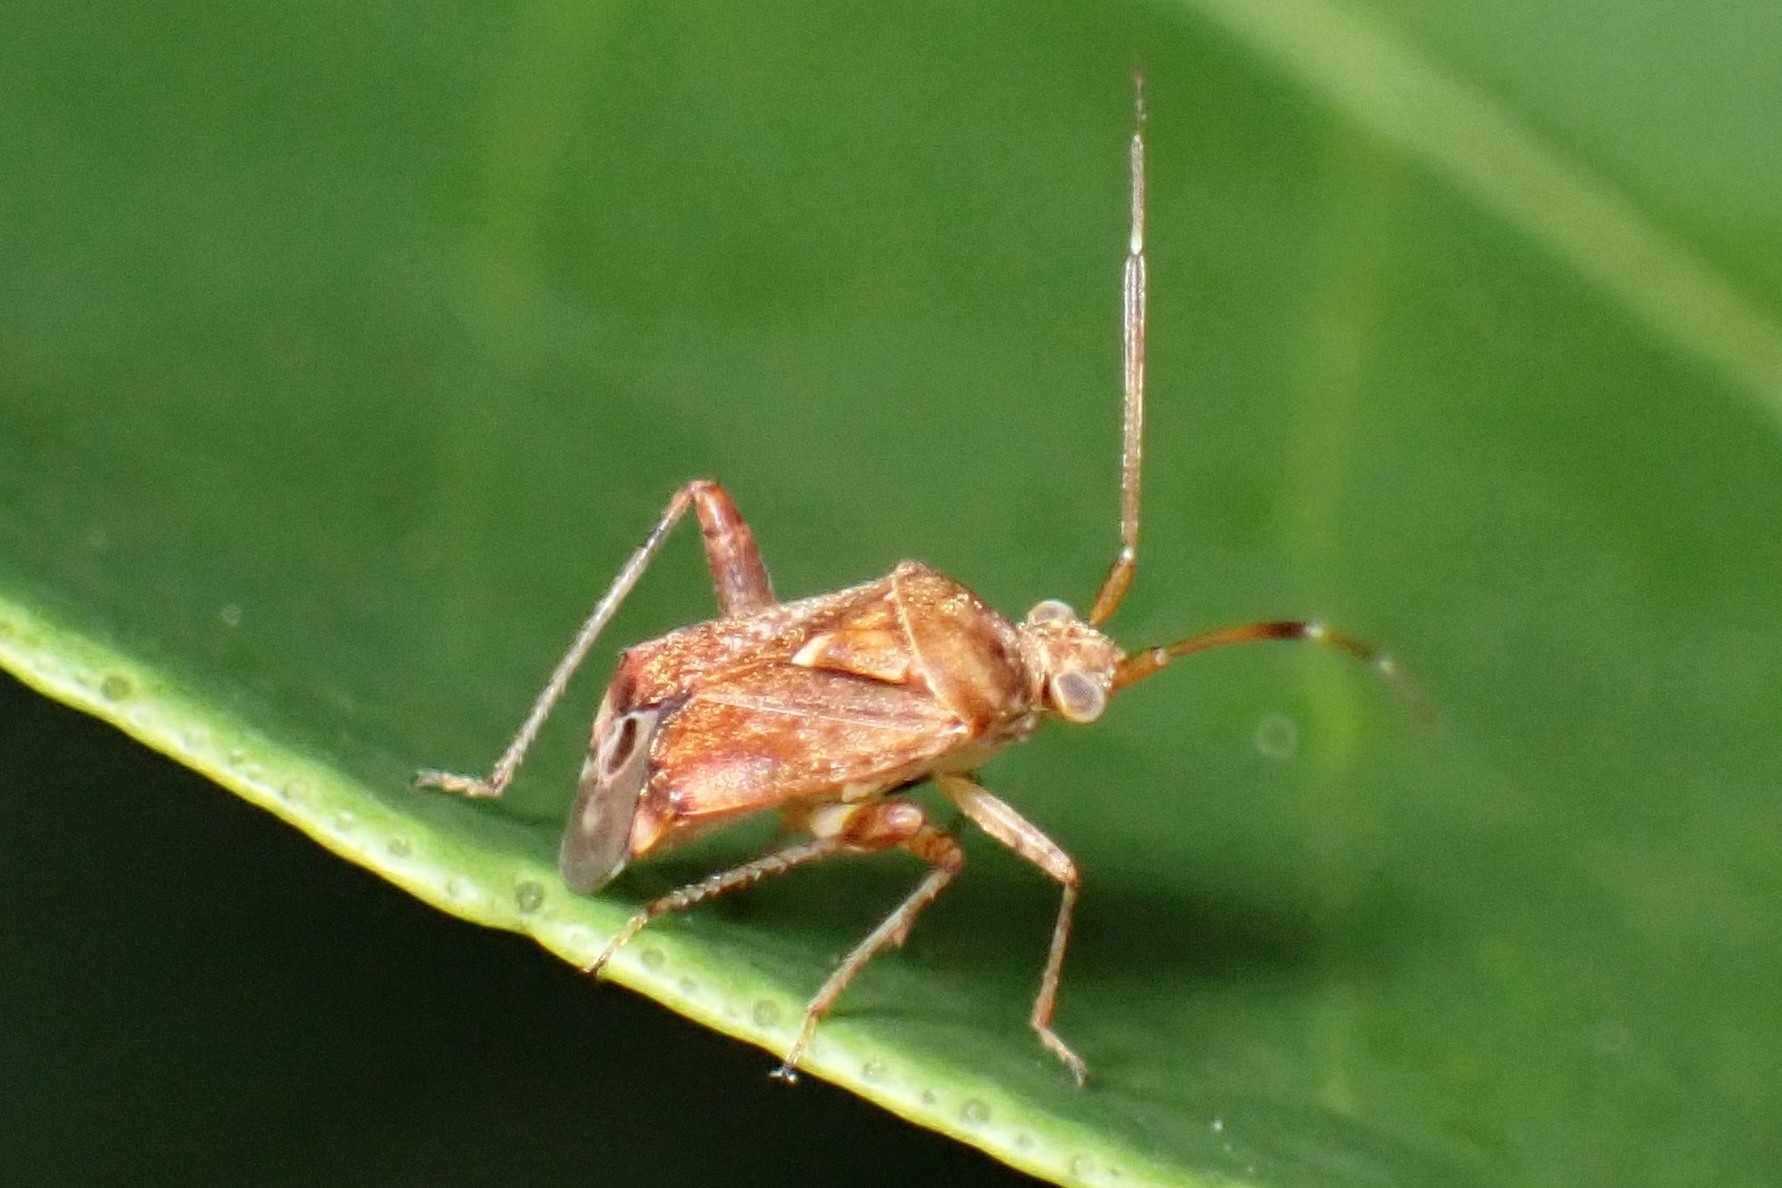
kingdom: Animalia
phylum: Arthropoda
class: Insecta
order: Hemiptera
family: Miridae
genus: Sidnia
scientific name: Sidnia kinbergi
